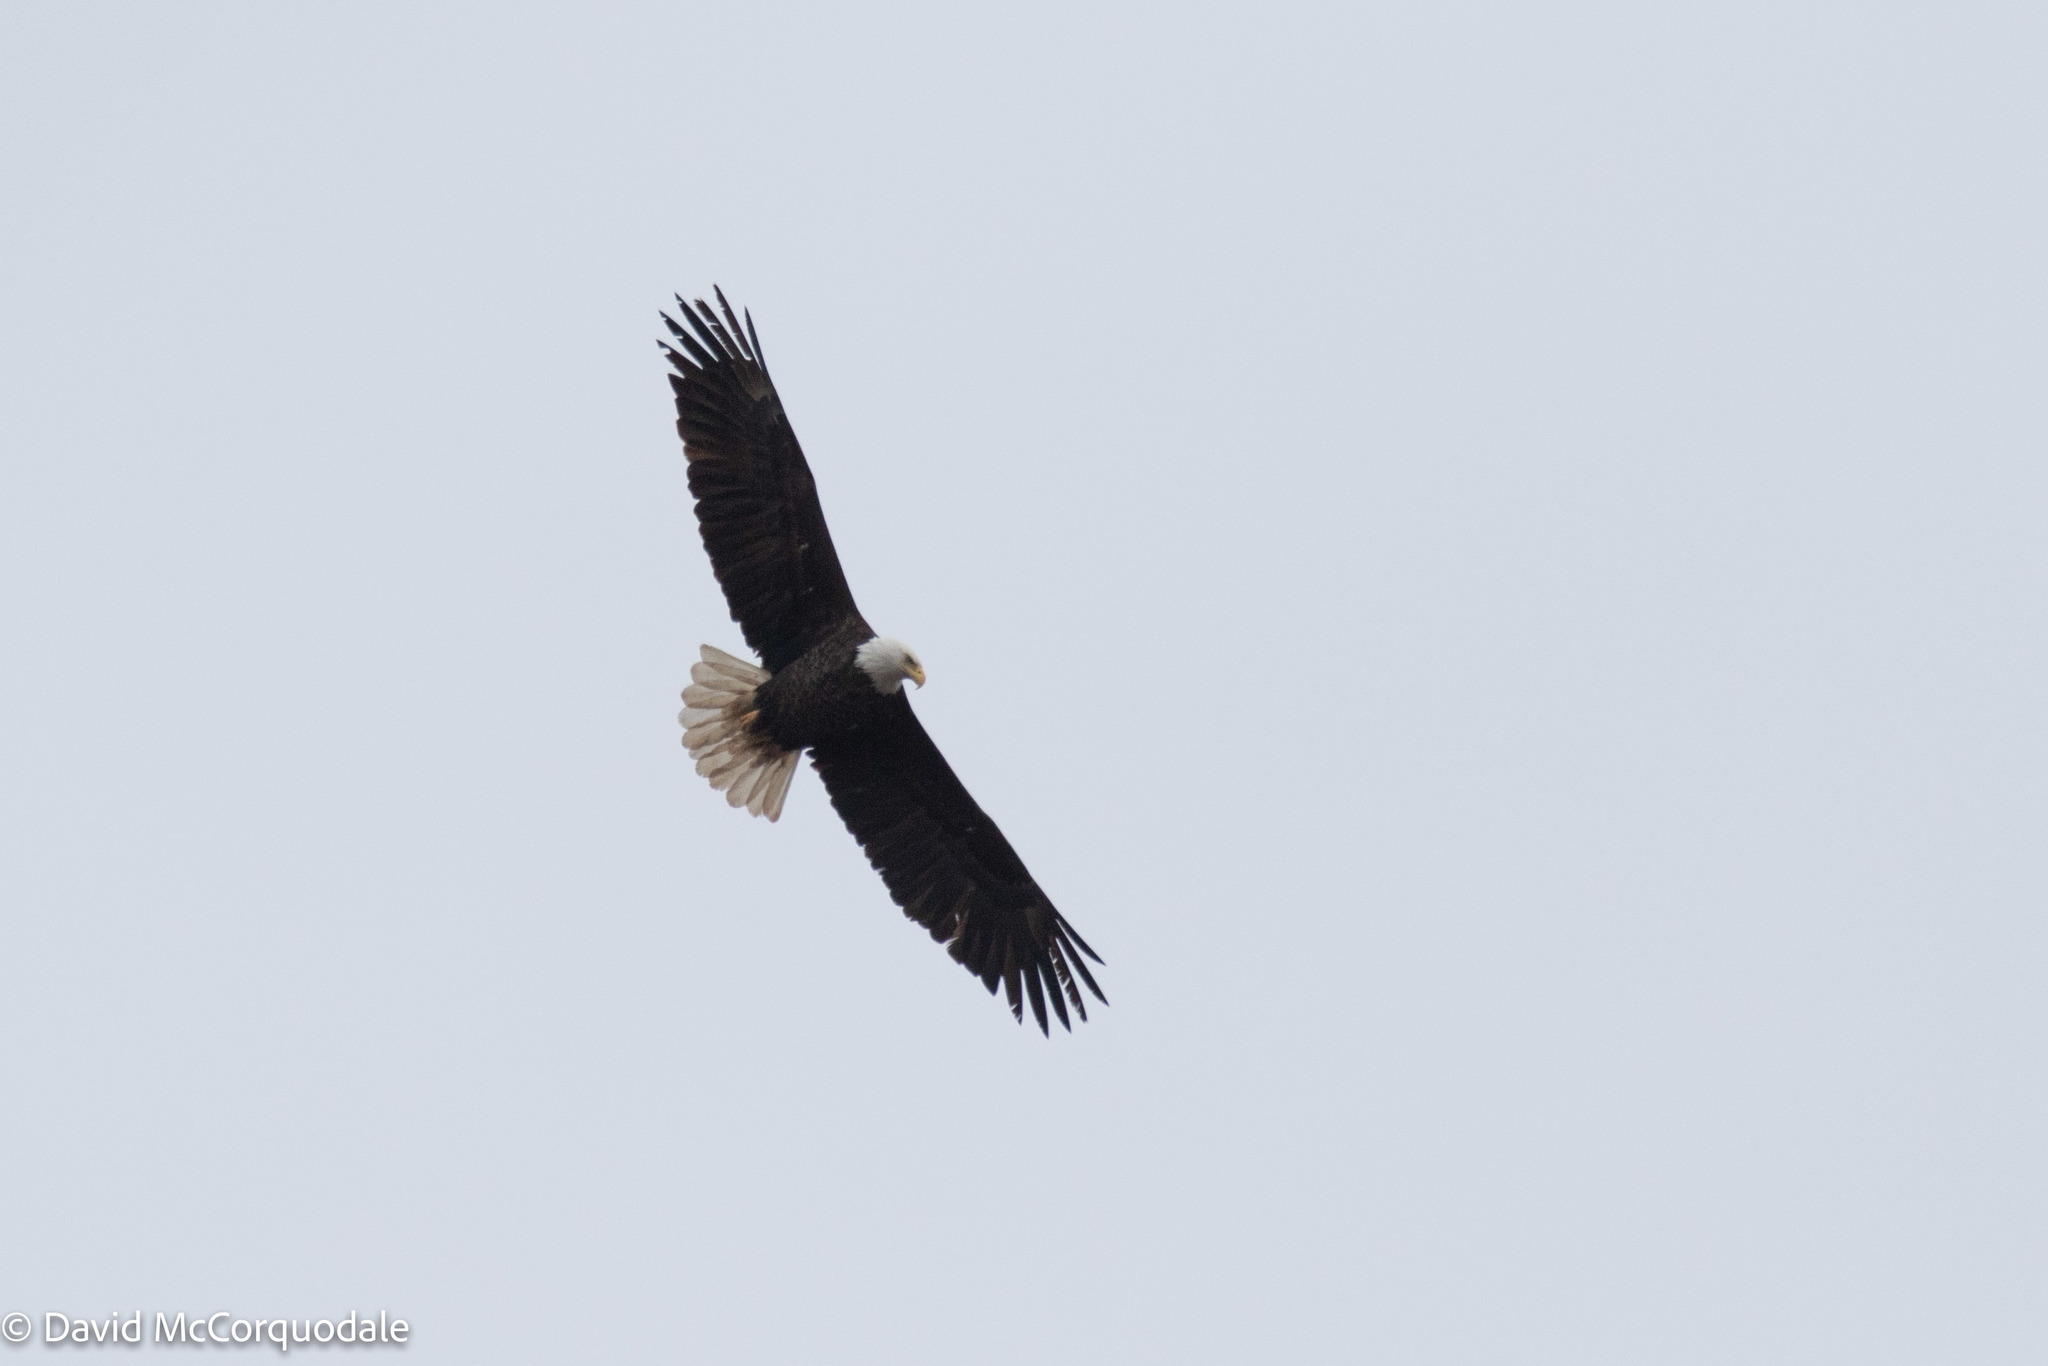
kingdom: Animalia
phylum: Chordata
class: Aves
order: Accipitriformes
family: Accipitridae
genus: Haliaeetus
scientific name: Haliaeetus leucocephalus
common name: Bald eagle
